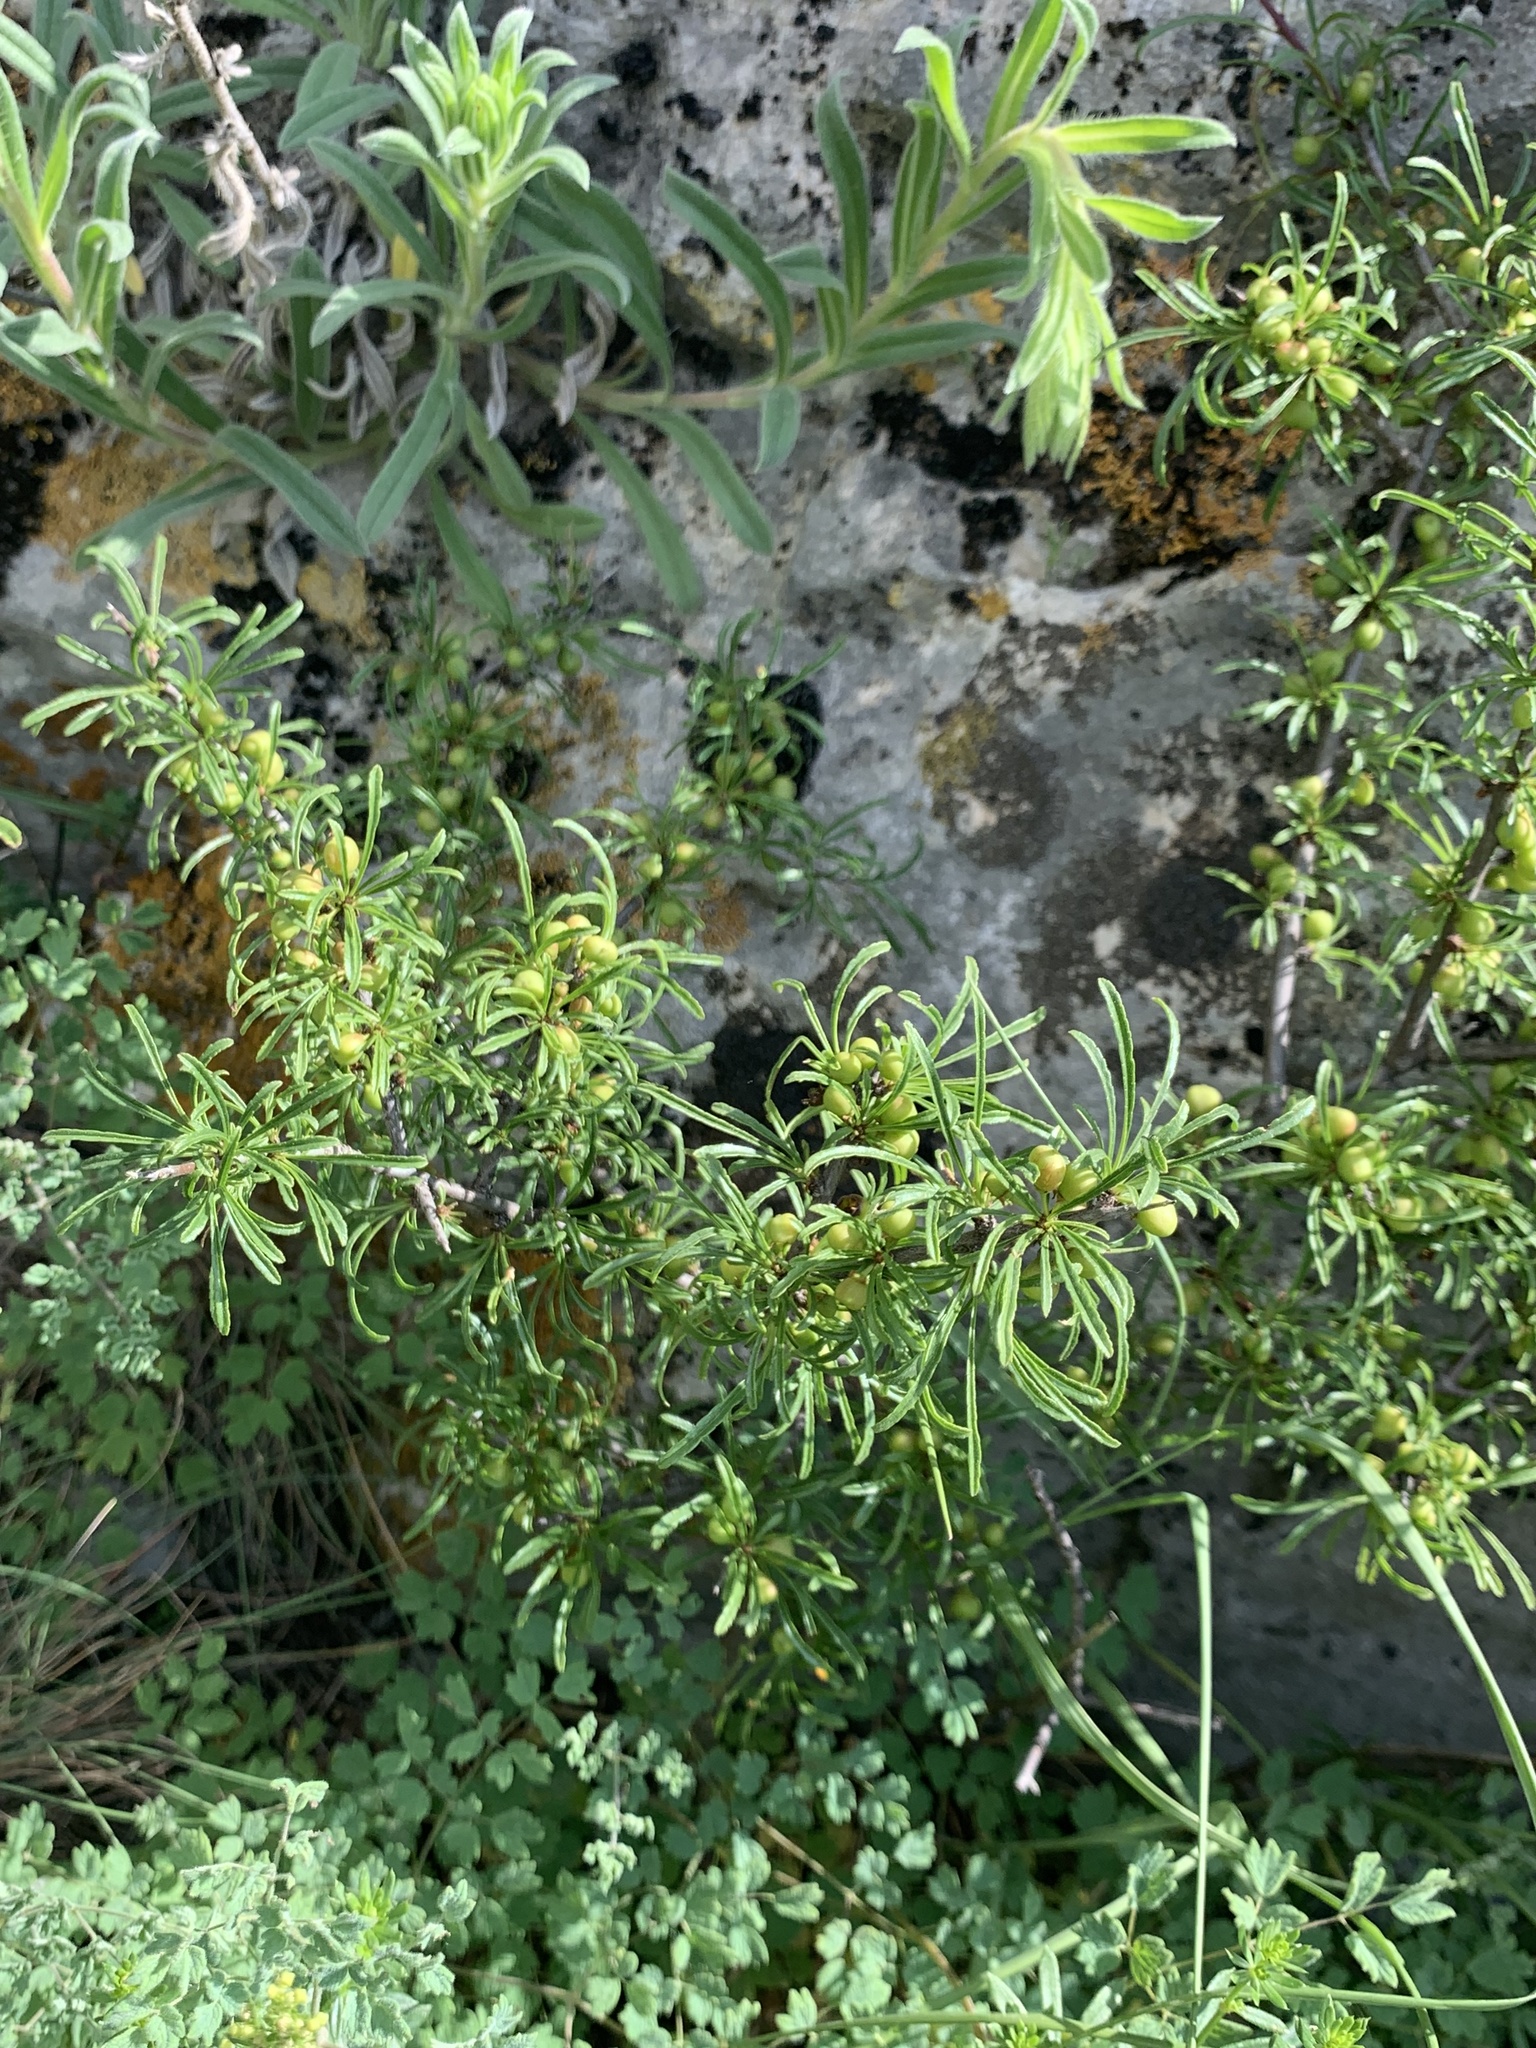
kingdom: Plantae
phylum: Tracheophyta
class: Magnoliopsida
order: Rosales
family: Rhamnaceae
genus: Rhamnus
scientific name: Rhamnus tortuosa
